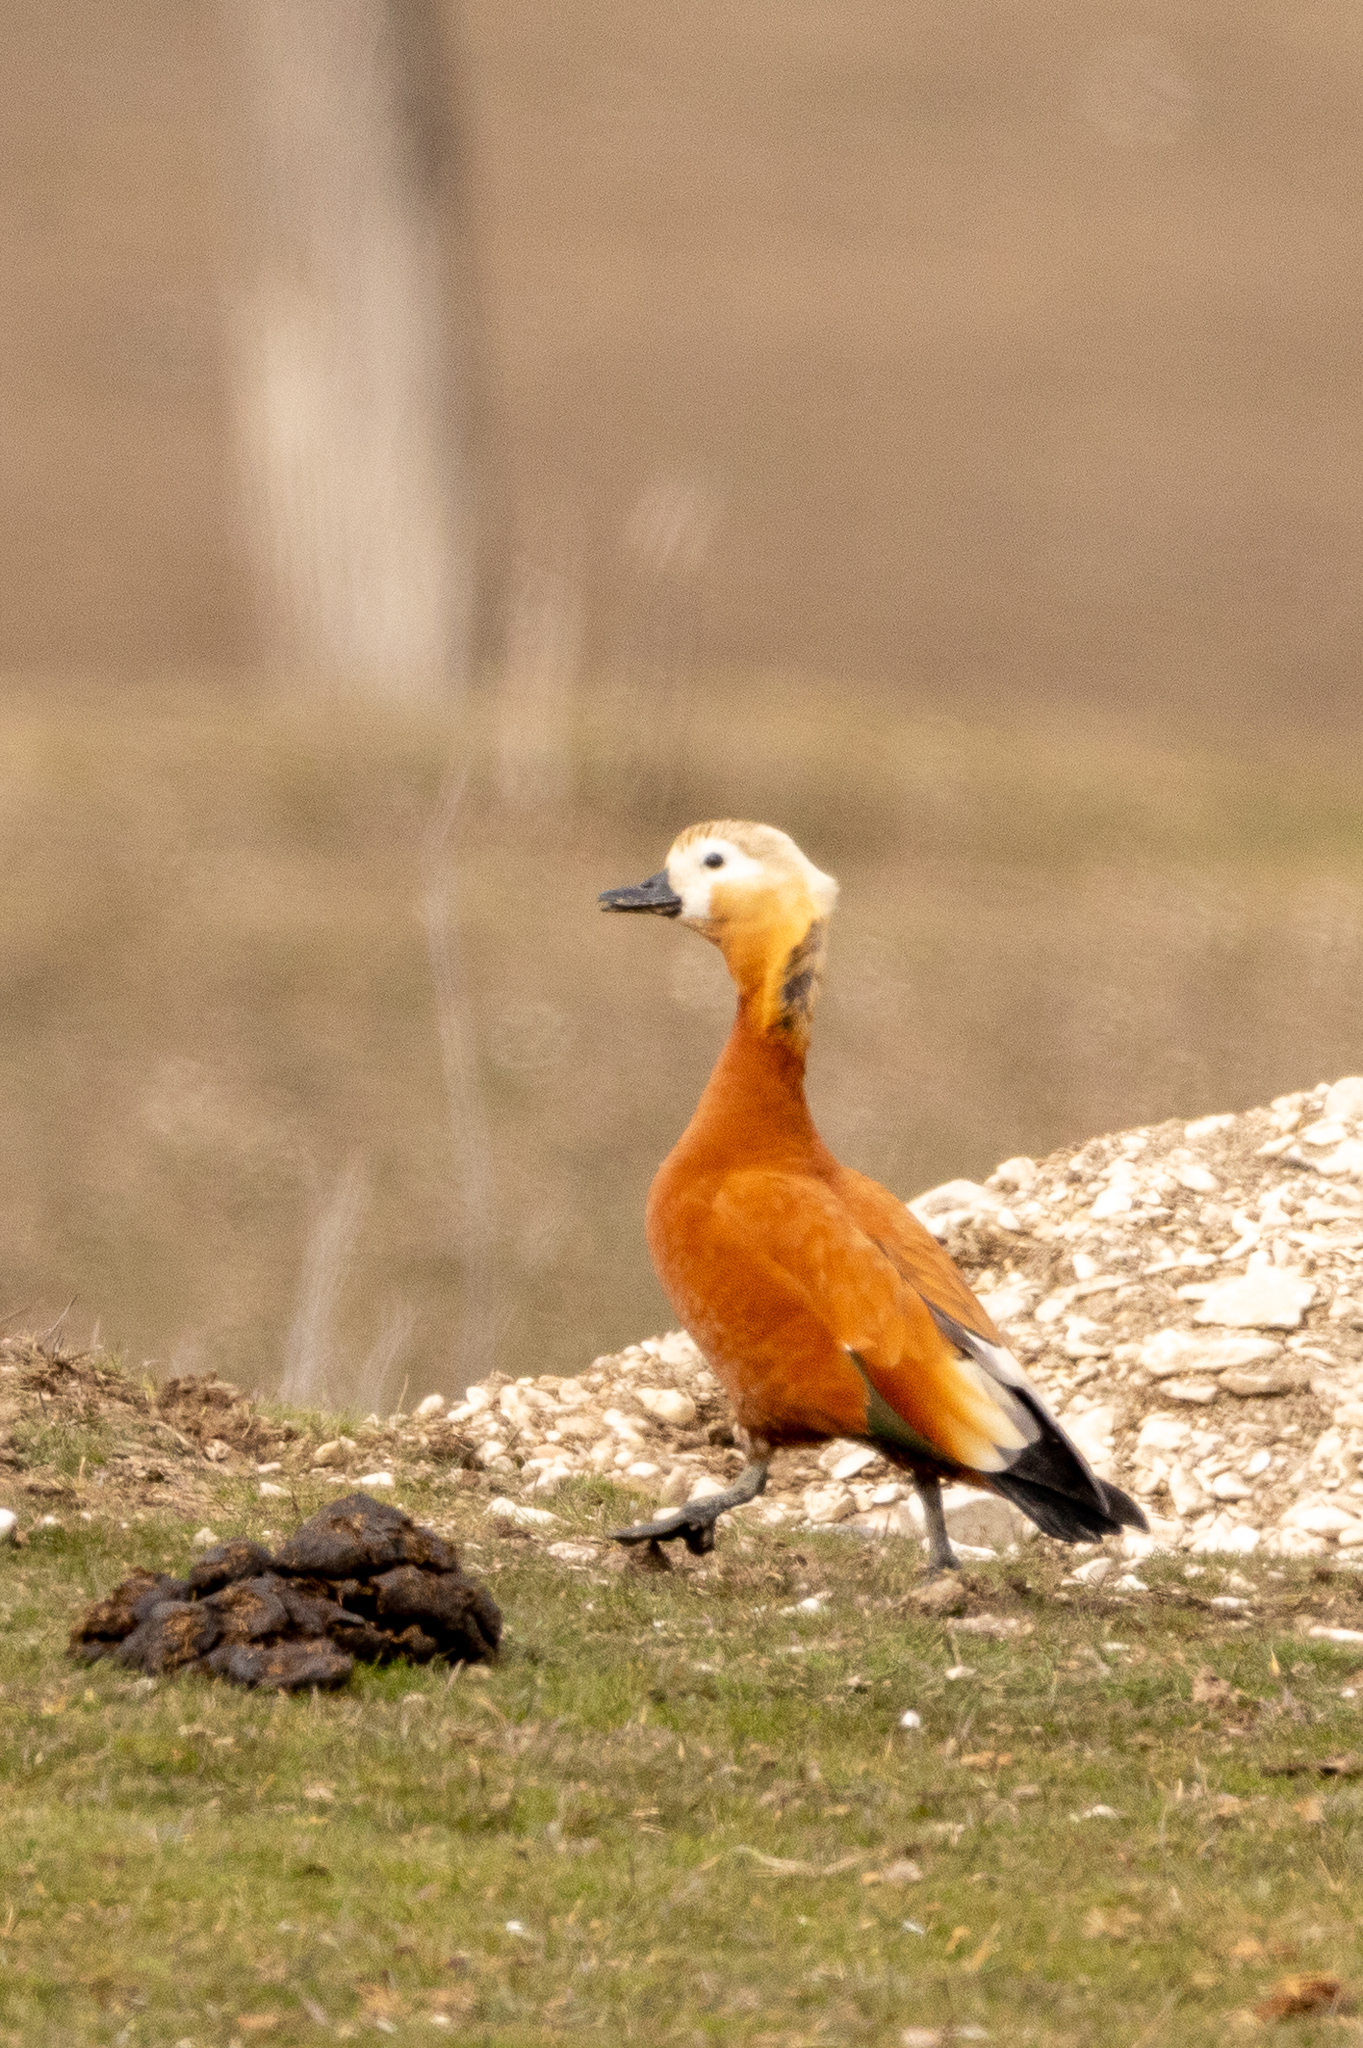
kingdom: Animalia
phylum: Chordata
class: Aves
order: Anseriformes
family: Anatidae
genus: Tadorna
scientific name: Tadorna ferruginea
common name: Ruddy shelduck
